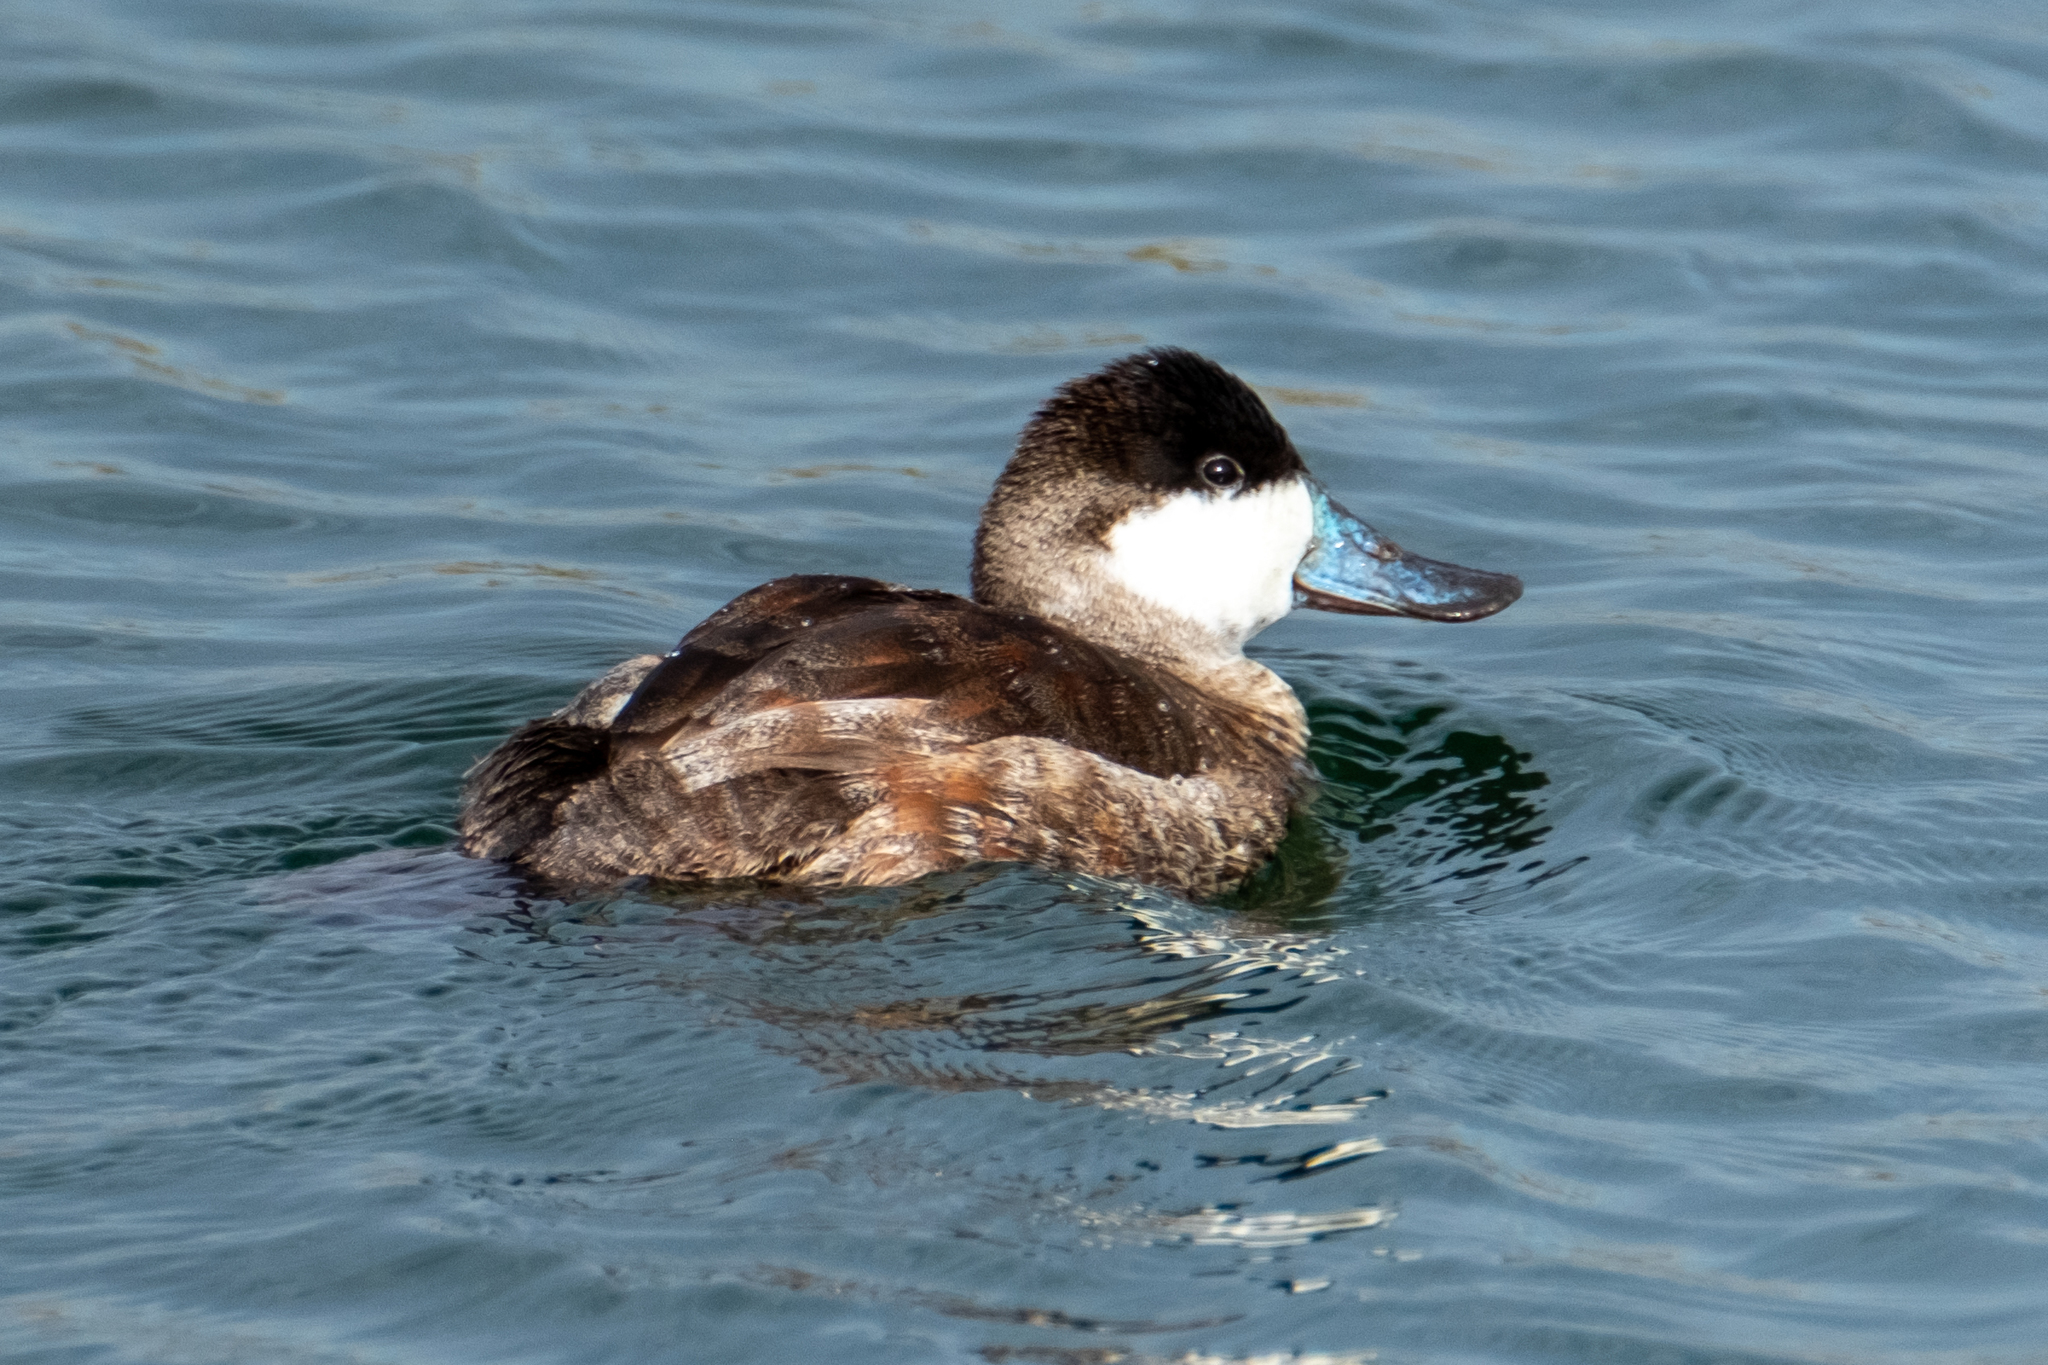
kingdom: Animalia
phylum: Chordata
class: Aves
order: Anseriformes
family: Anatidae
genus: Oxyura
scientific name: Oxyura jamaicensis
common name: Ruddy duck
